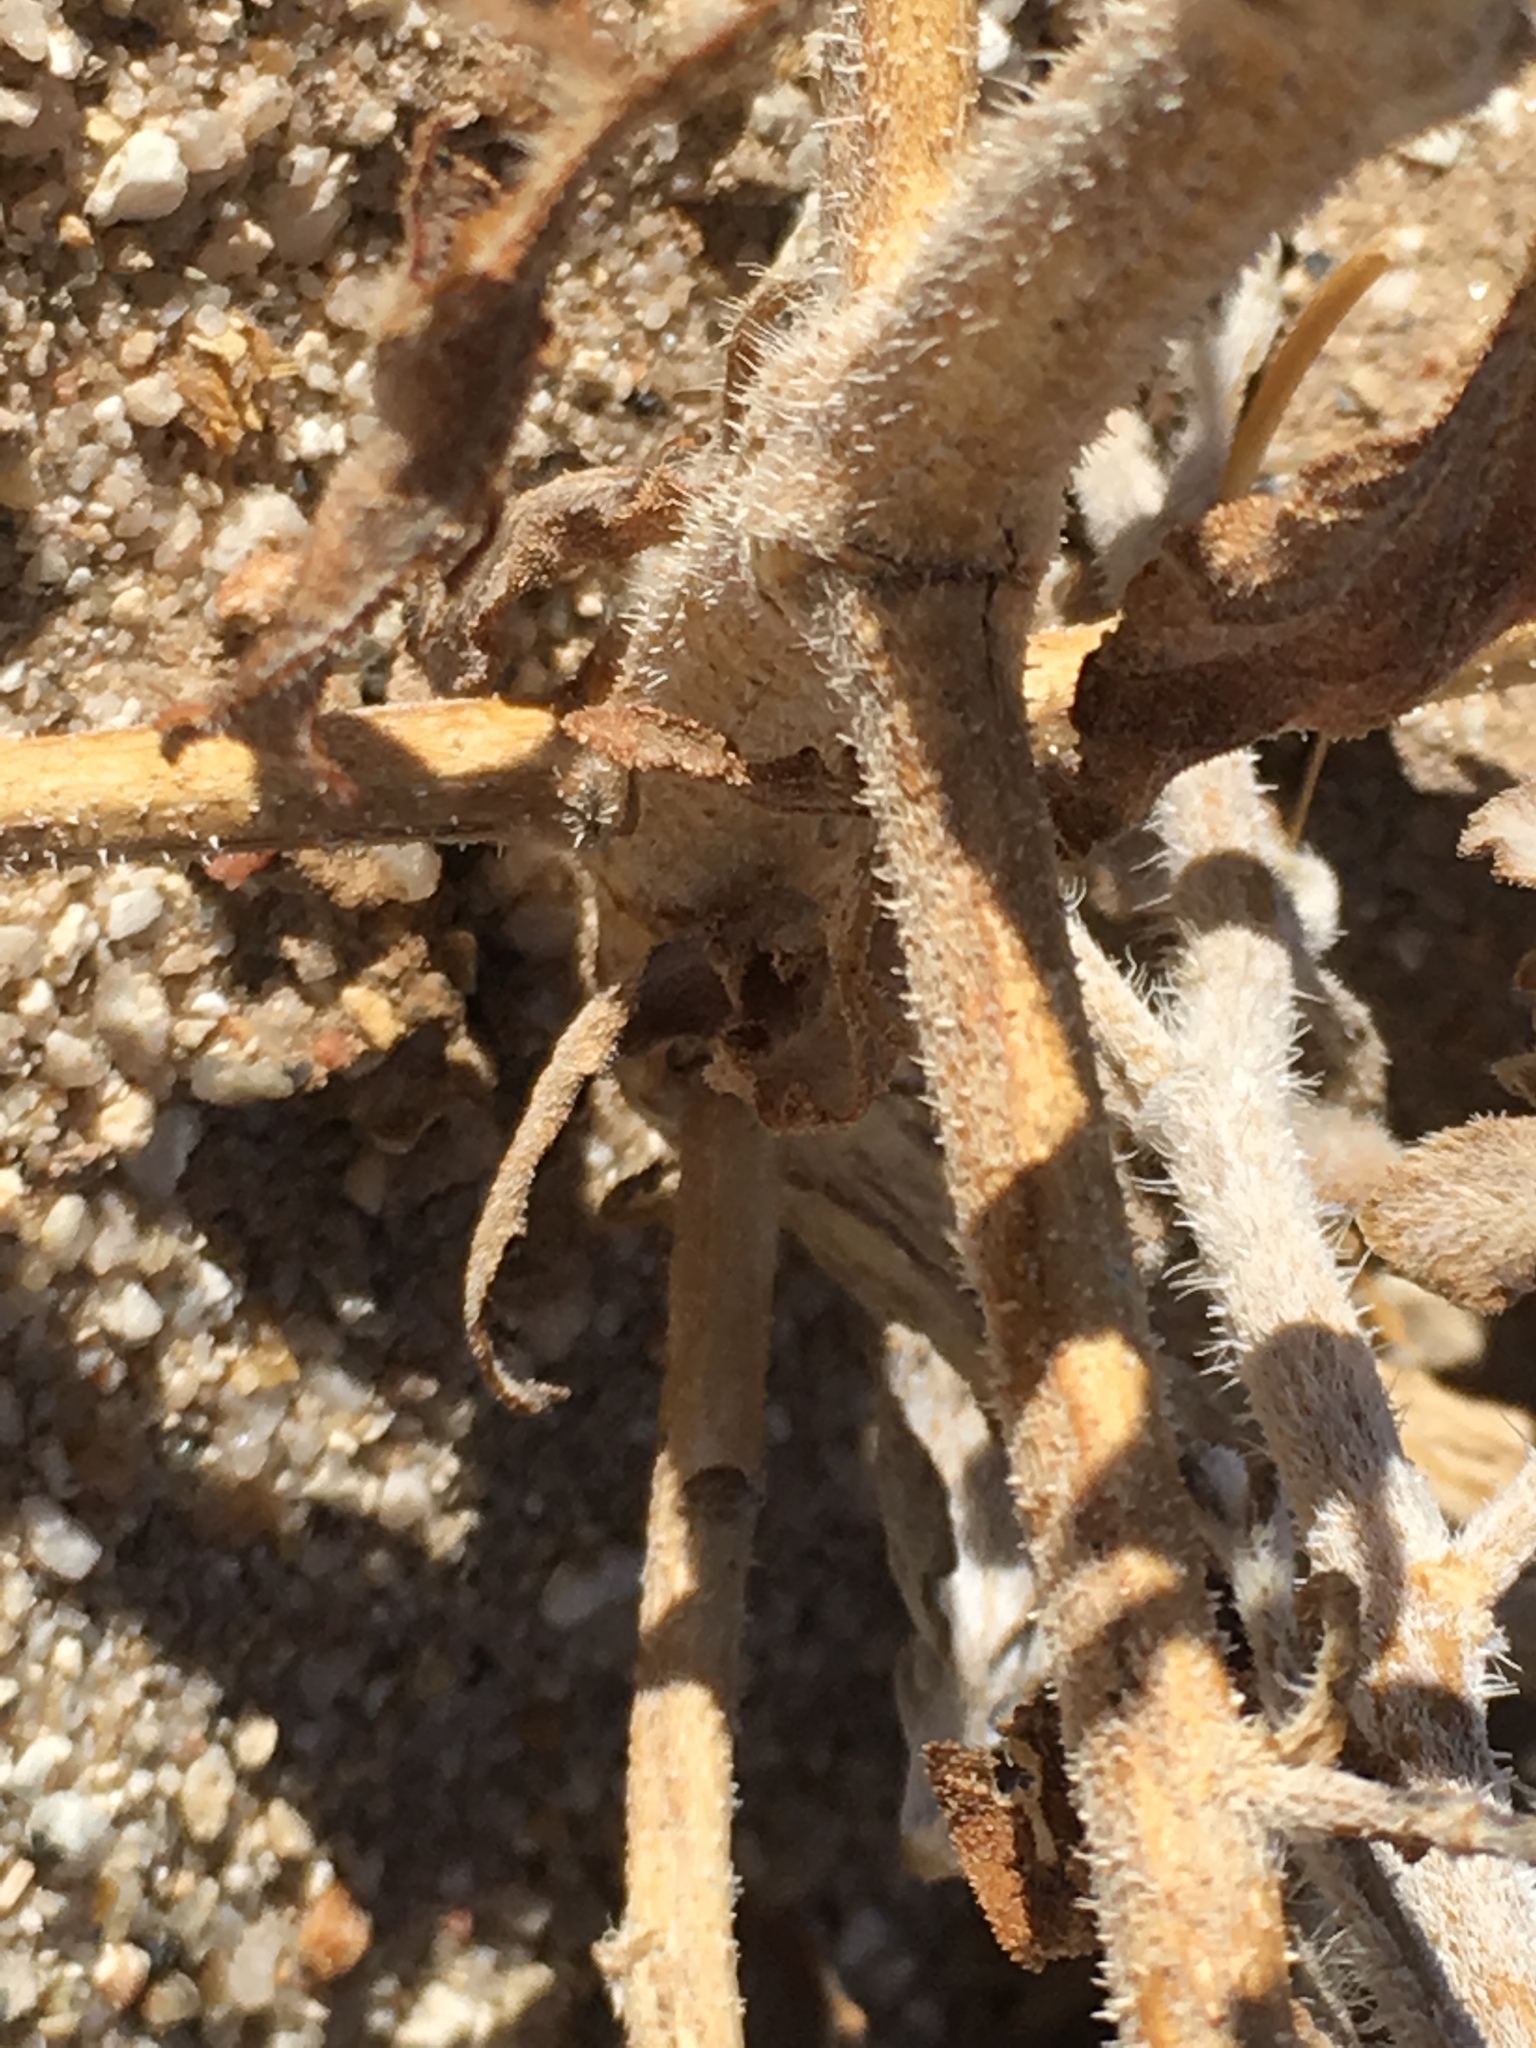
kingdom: Plantae
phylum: Tracheophyta
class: Magnoliopsida
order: Asterales
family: Asteraceae
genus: Dicoria
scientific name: Dicoria canescens
